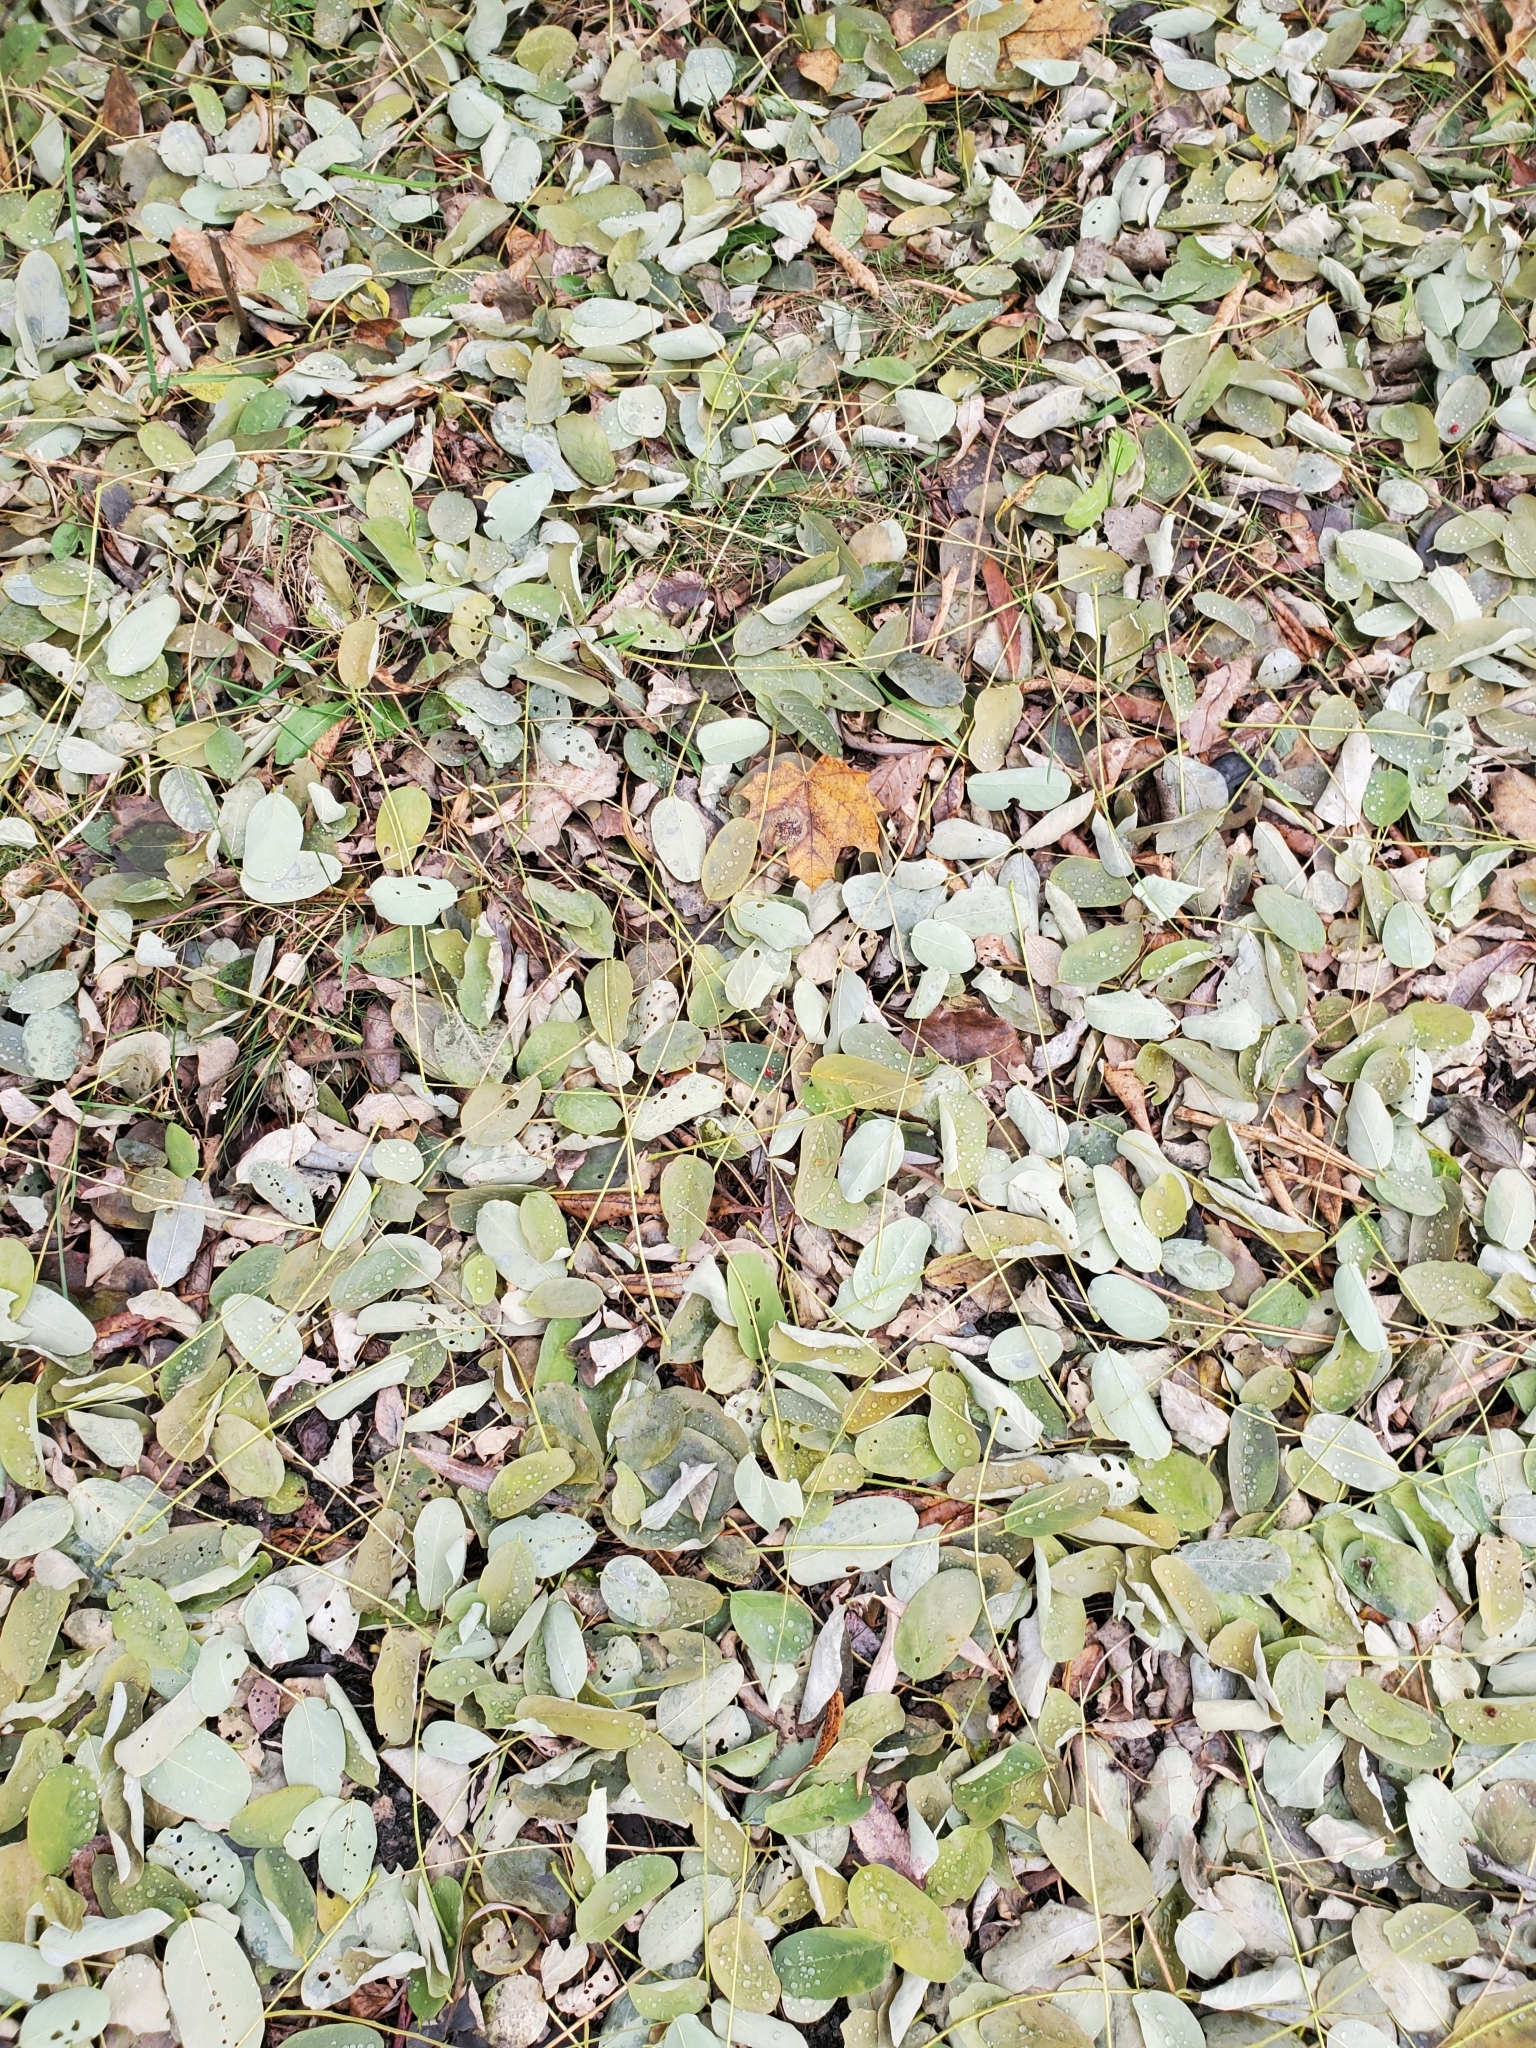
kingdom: Plantae
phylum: Tracheophyta
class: Magnoliopsida
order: Fabales
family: Fabaceae
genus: Robinia
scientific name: Robinia pseudoacacia
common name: Black locust
